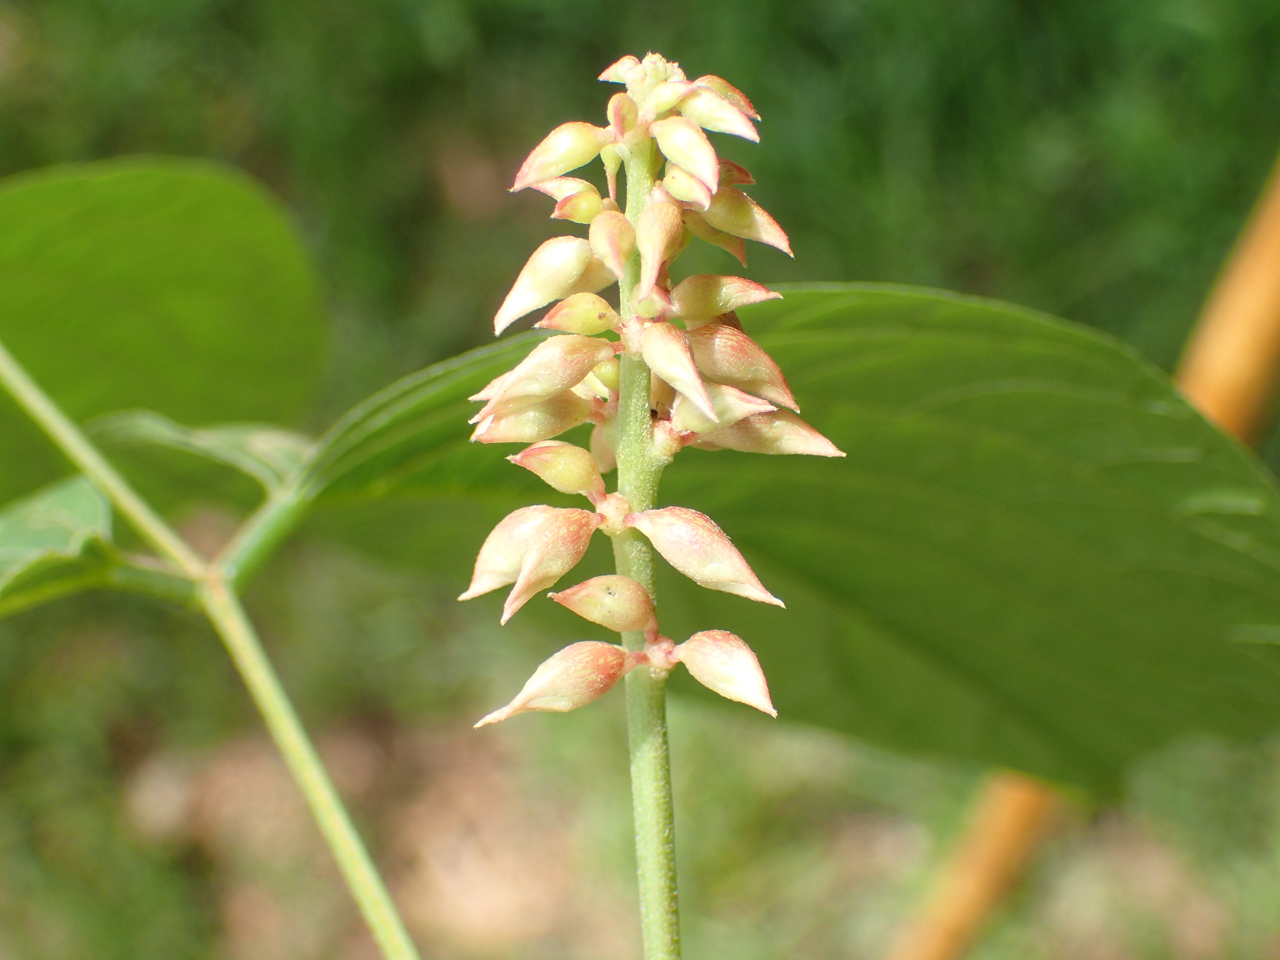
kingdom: Plantae
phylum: Tracheophyta
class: Magnoliopsida
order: Fabales
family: Fabaceae
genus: Lackeya
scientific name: Lackeya multiflora
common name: Boykin's clusterpea
